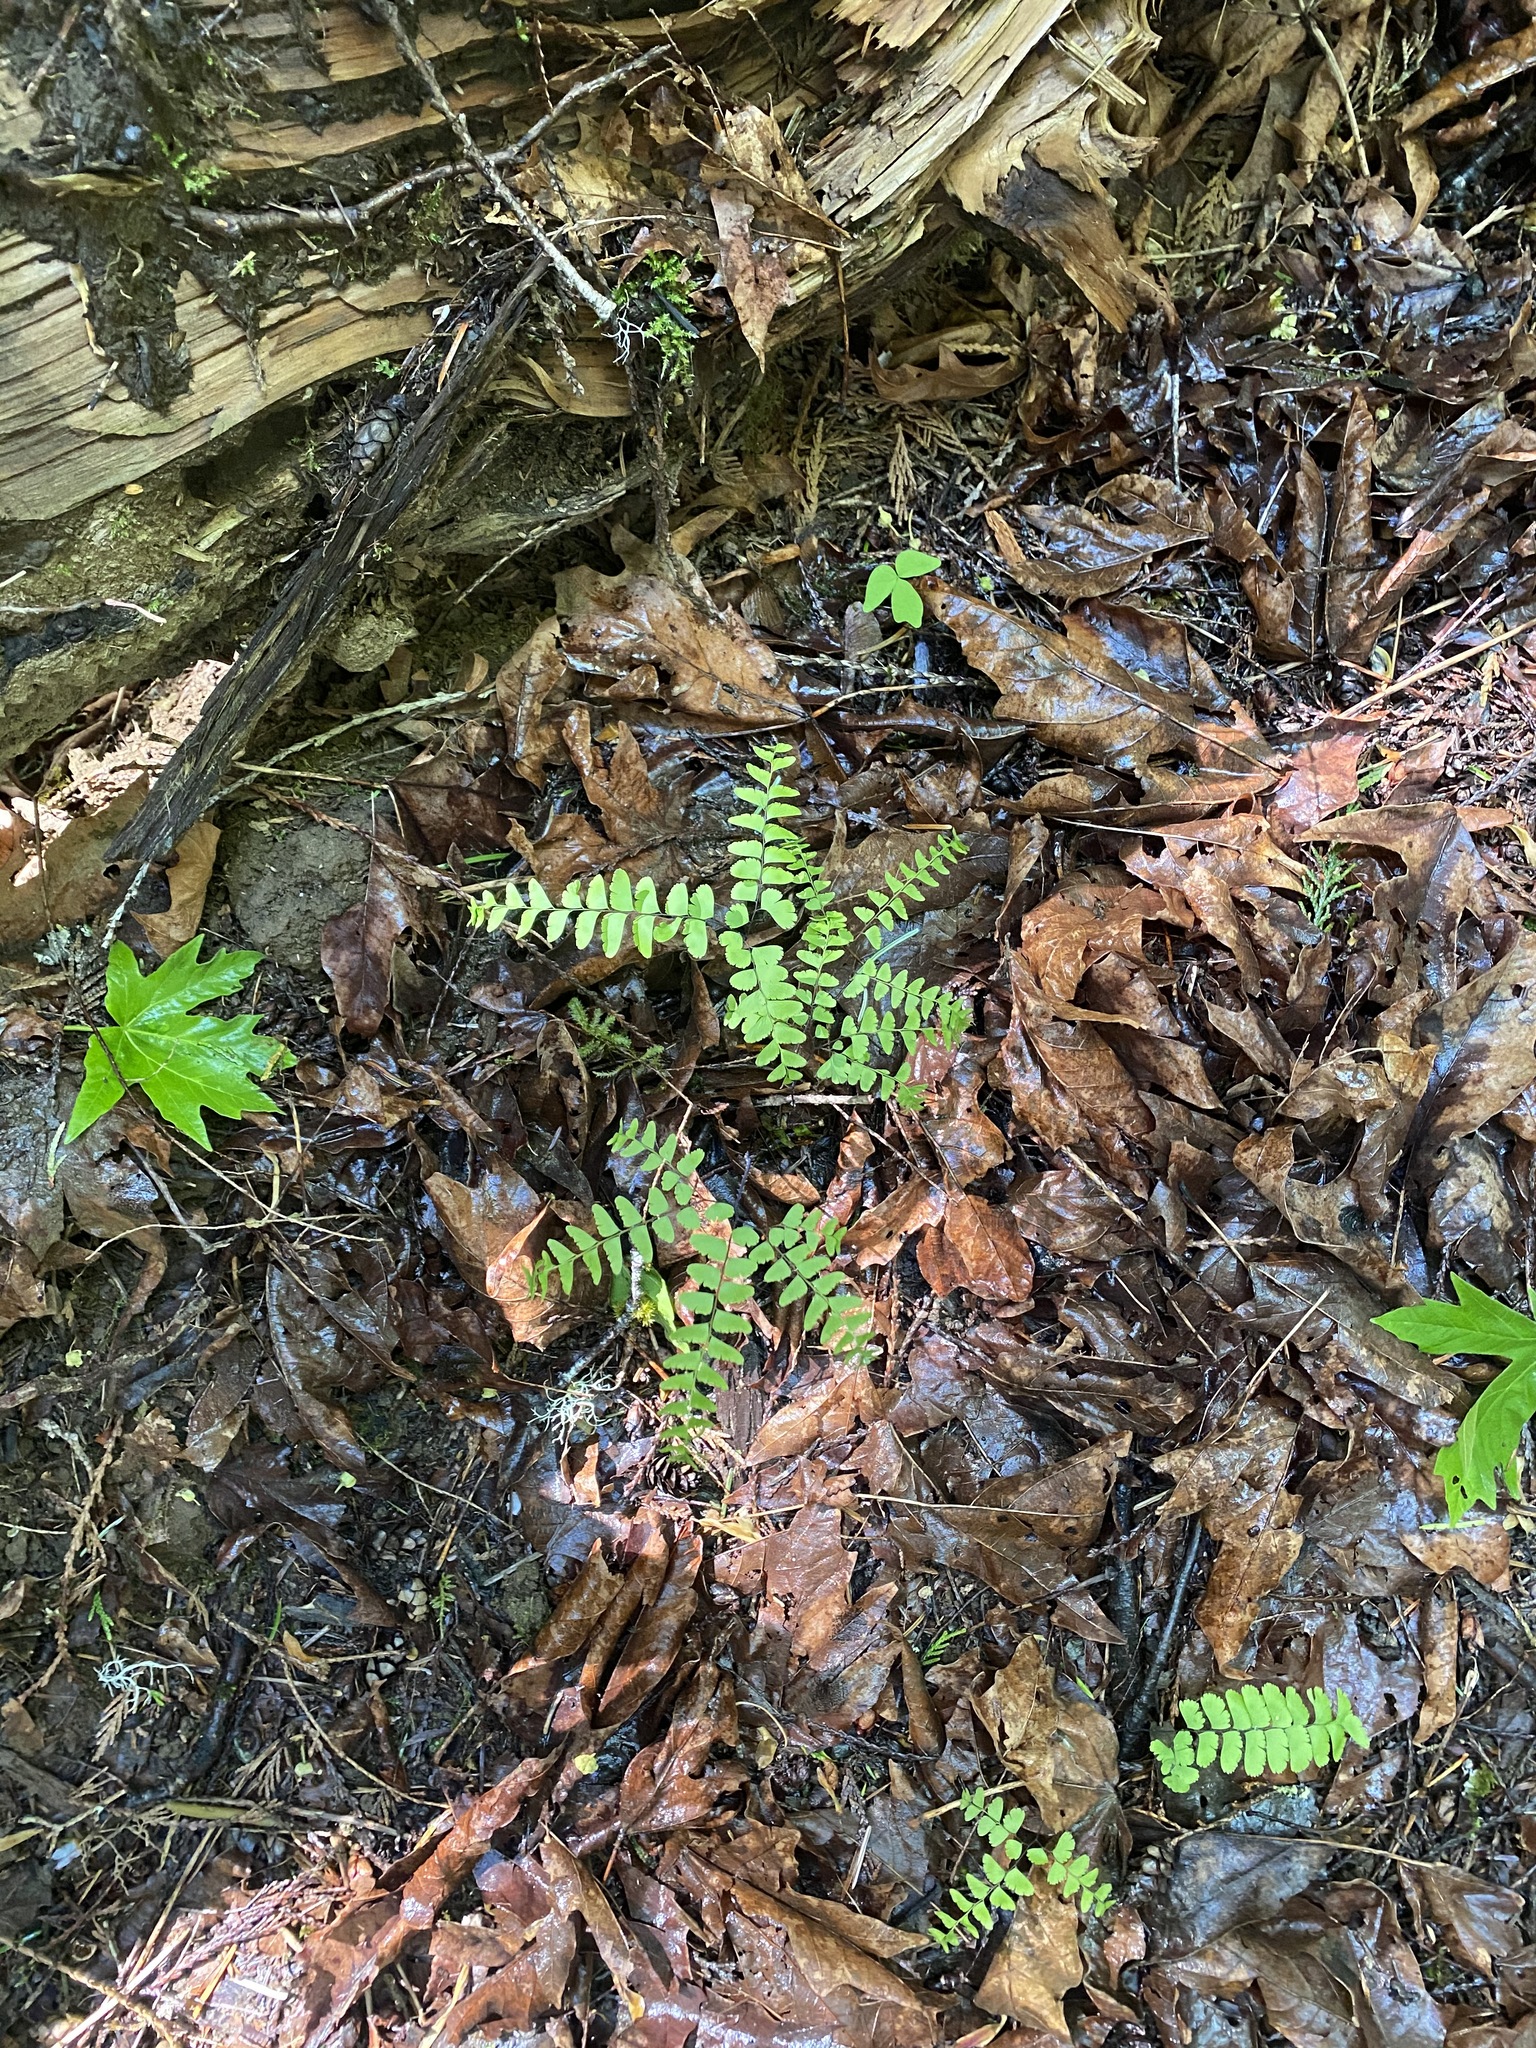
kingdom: Plantae
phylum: Tracheophyta
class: Polypodiopsida
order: Polypodiales
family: Pteridaceae
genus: Adiantum
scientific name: Adiantum aleuticum
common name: Aleutian maidenhair fern
